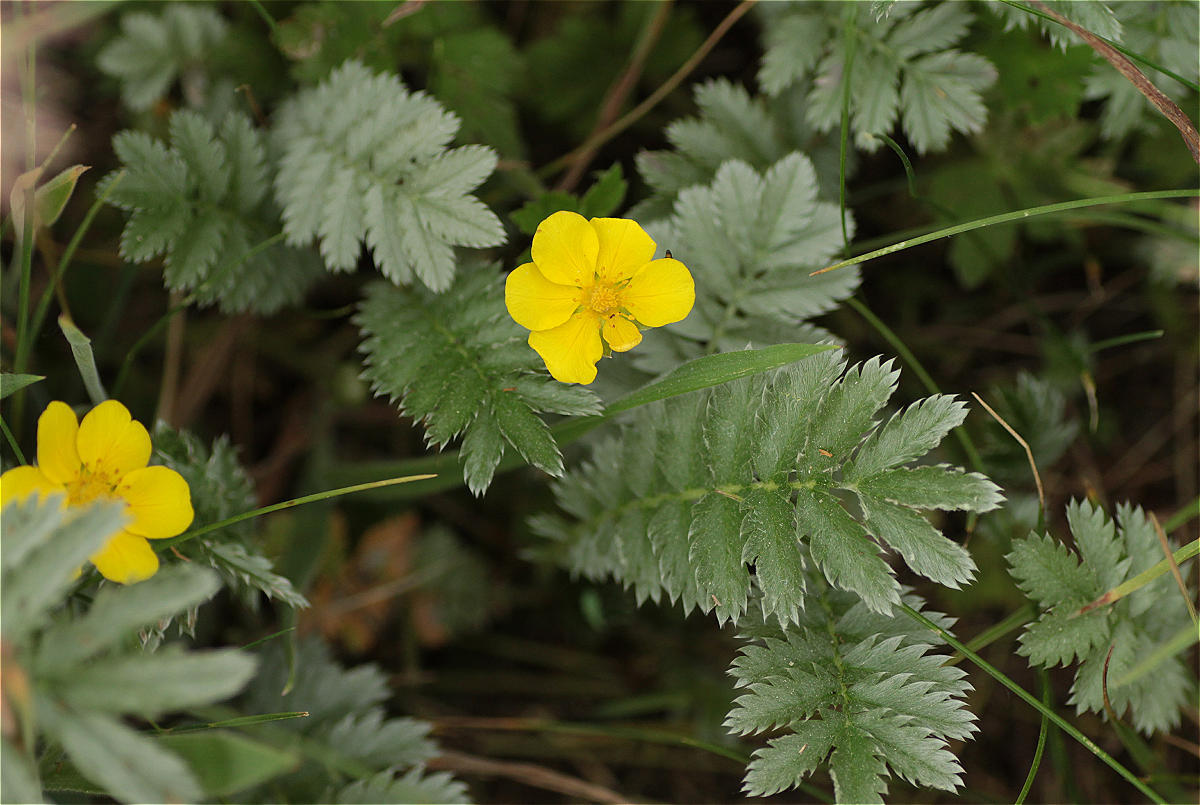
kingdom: Plantae
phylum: Tracheophyta
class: Magnoliopsida
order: Rosales
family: Rosaceae
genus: Argentina
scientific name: Argentina anserina
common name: Common silverweed
